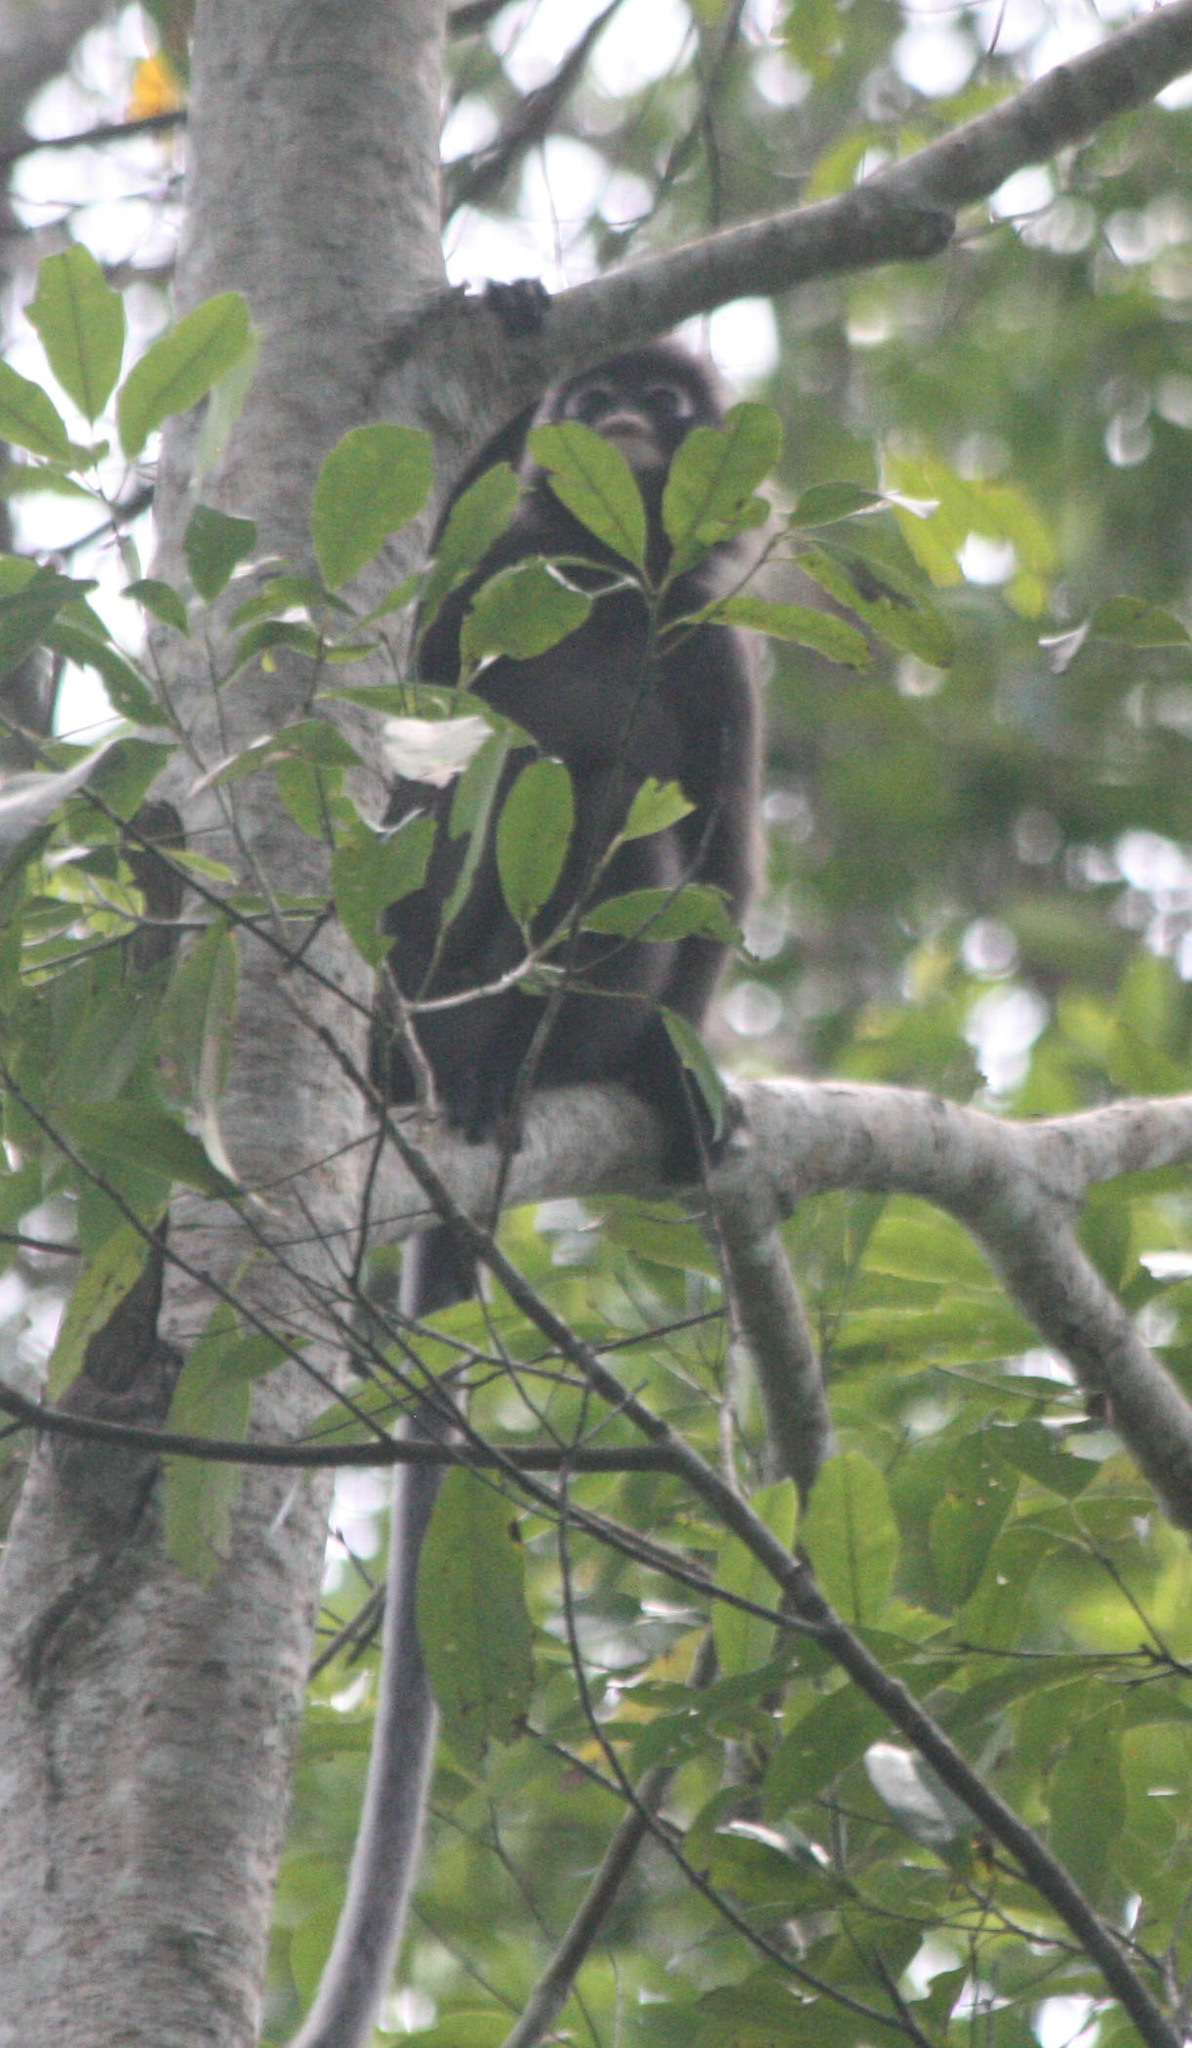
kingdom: Animalia
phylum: Chordata
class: Mammalia
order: Primates
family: Cercopithecidae
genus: Trachypithecus
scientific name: Trachypithecus obscurus
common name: Dusky leaf-monkey
